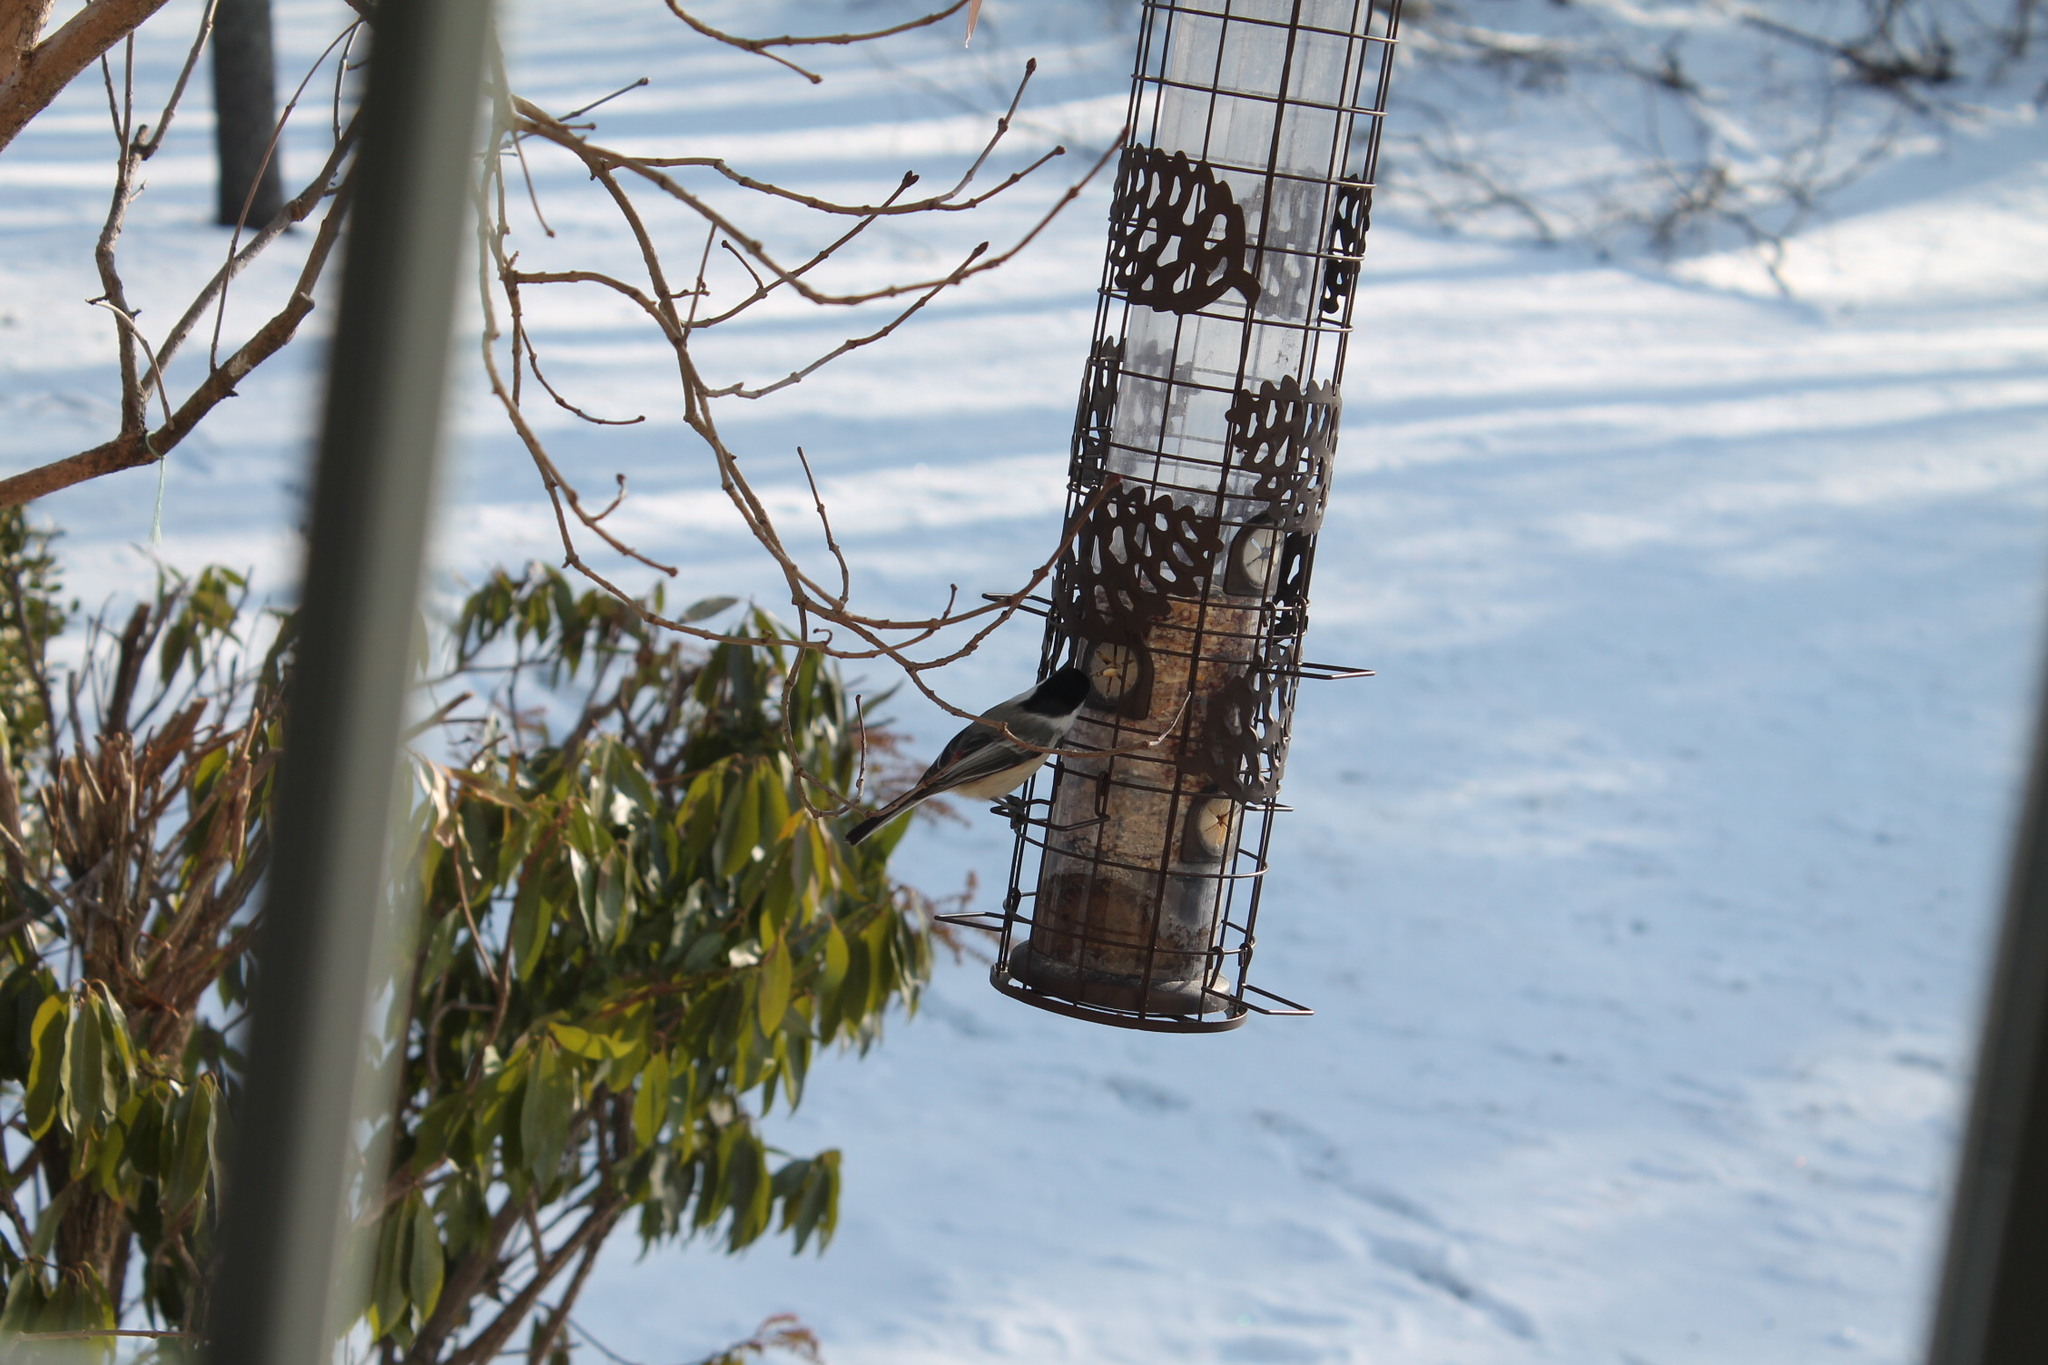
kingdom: Animalia
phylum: Chordata
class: Aves
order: Passeriformes
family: Paridae
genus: Poecile
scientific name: Poecile atricapillus
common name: Black-capped chickadee
